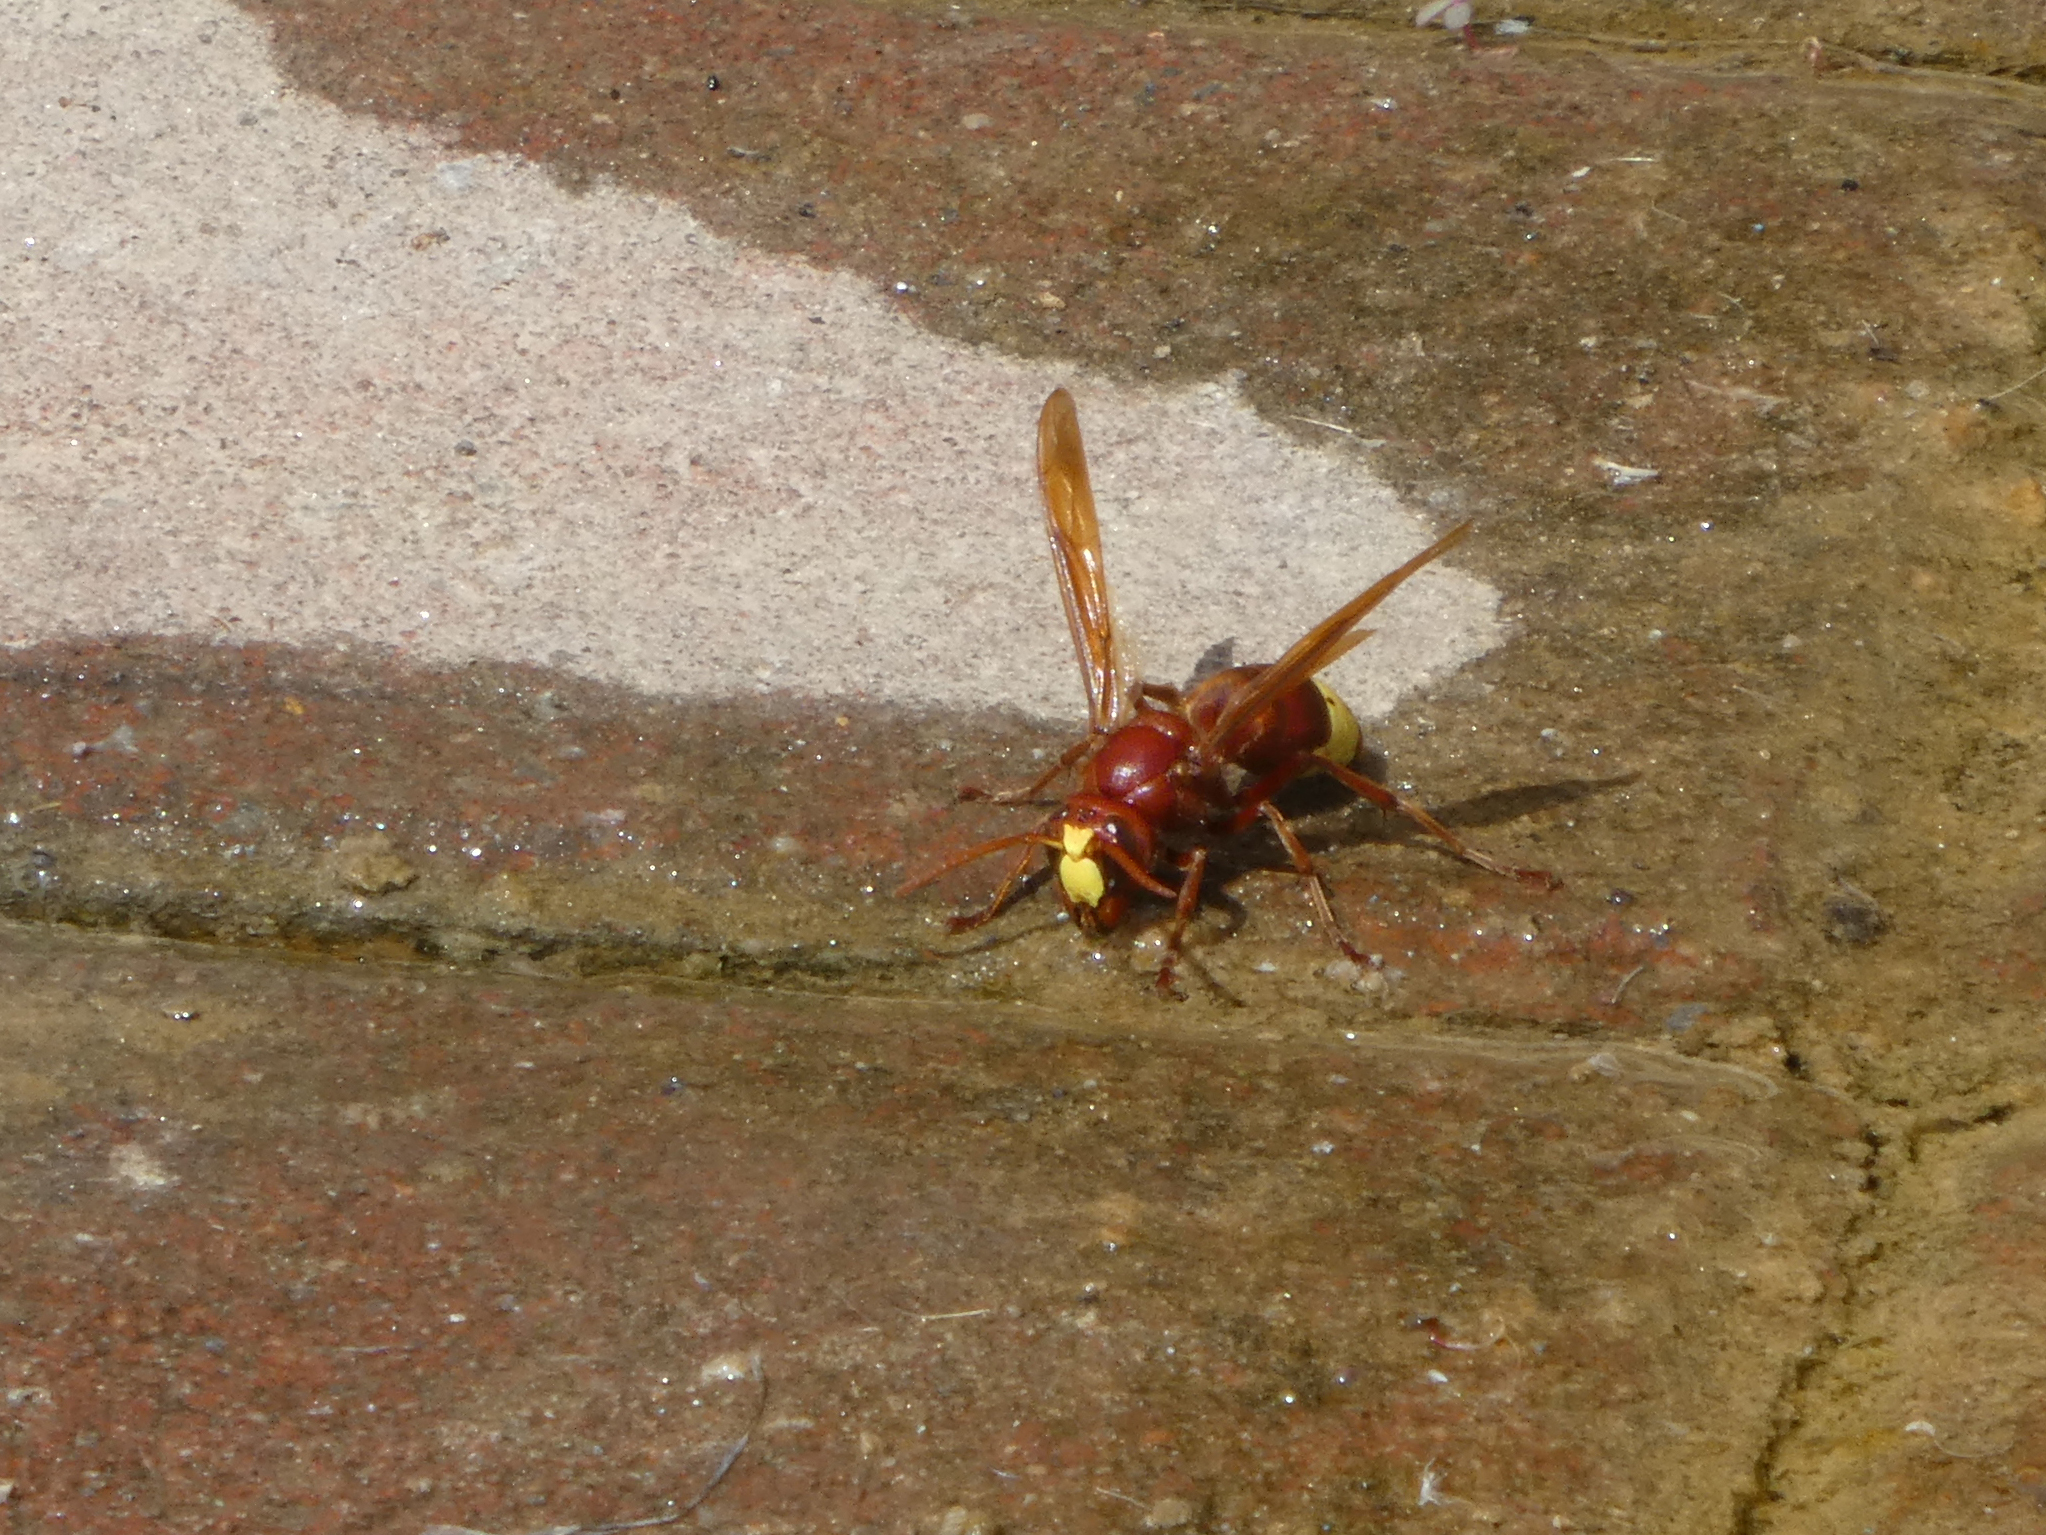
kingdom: Animalia
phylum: Arthropoda
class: Insecta
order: Hymenoptera
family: Vespidae
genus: Vespa
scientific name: Vespa orientalis
